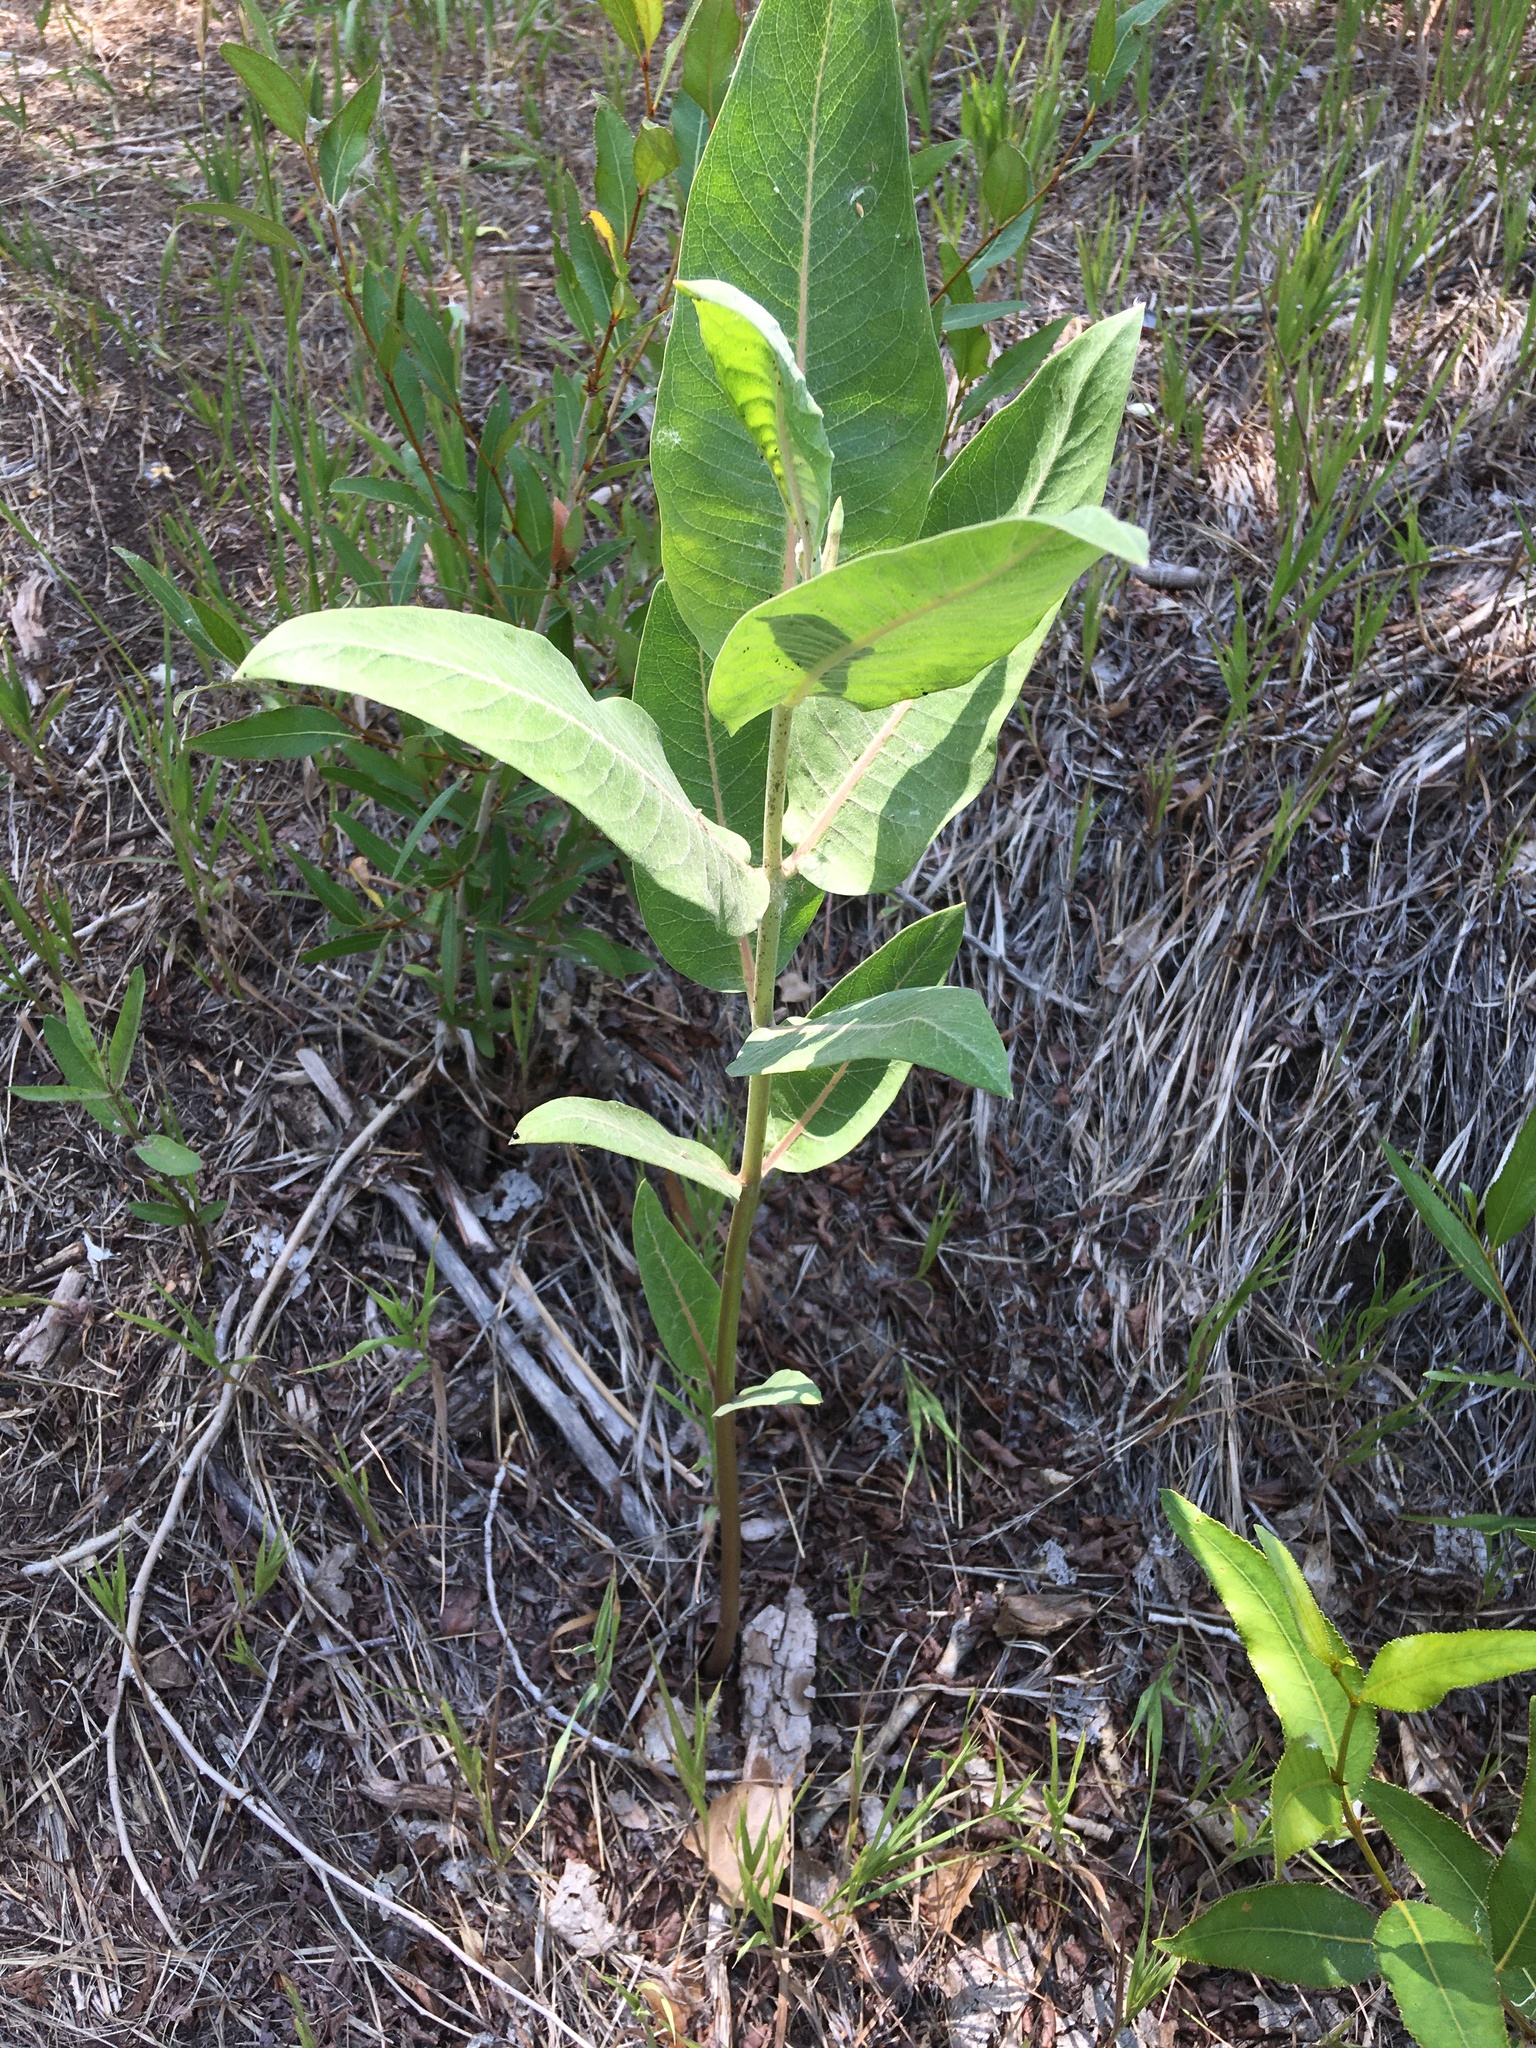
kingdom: Plantae
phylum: Tracheophyta
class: Magnoliopsida
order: Gentianales
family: Apocynaceae
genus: Asclepias
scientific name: Asclepias speciosa
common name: Showy milkweed
